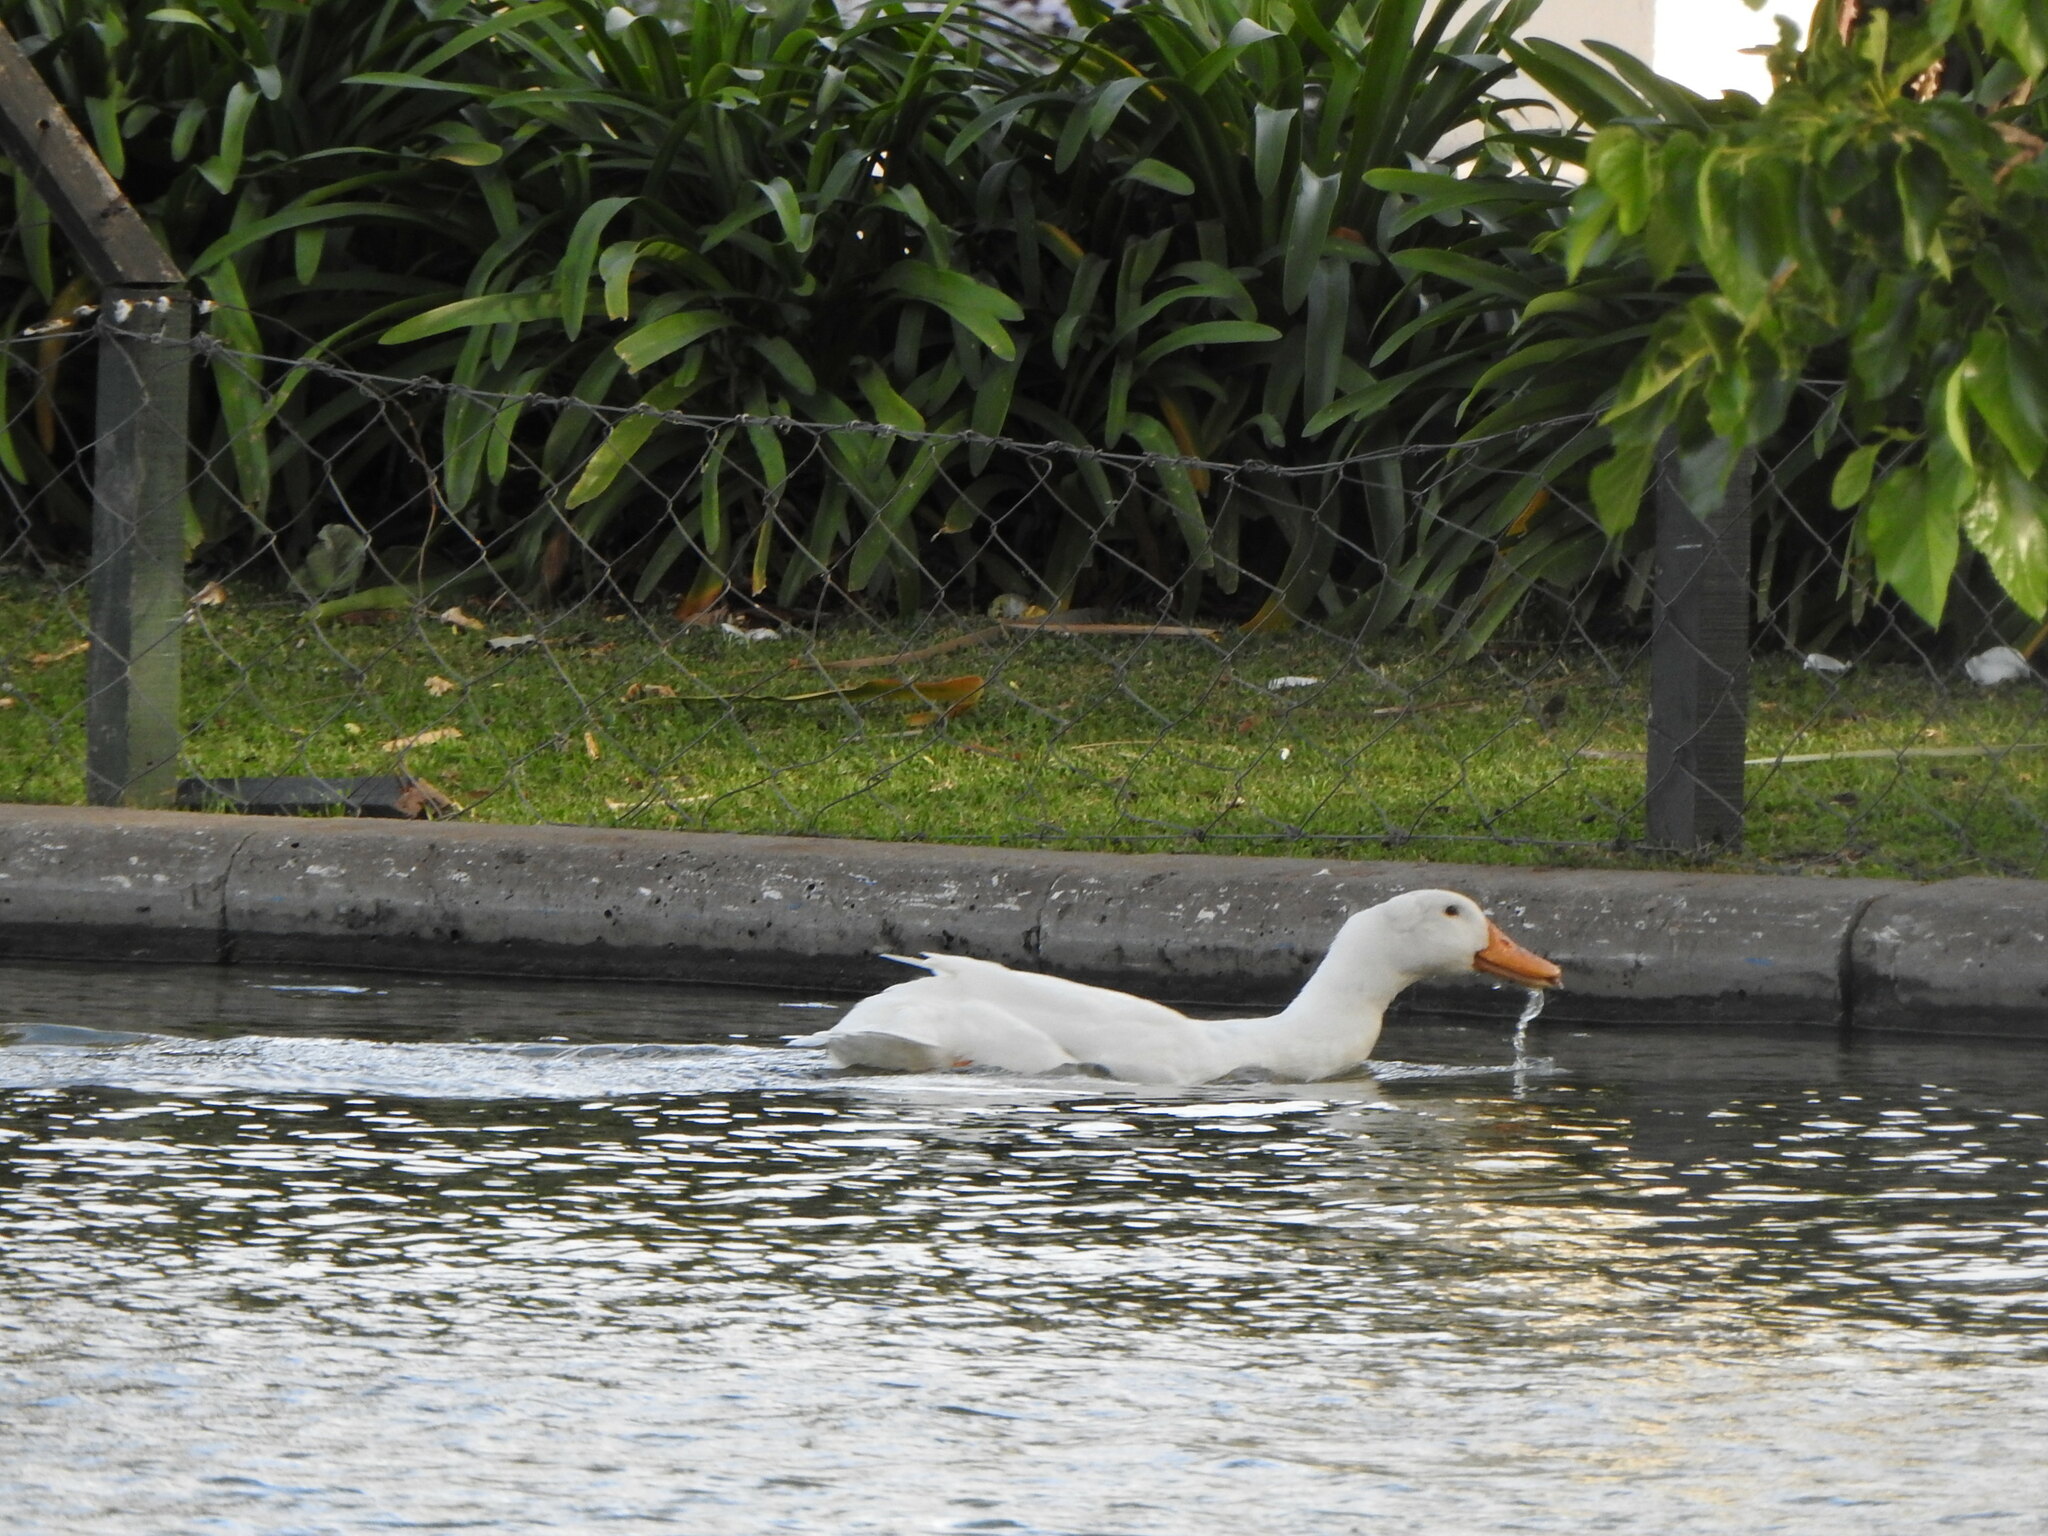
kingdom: Animalia
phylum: Chordata
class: Aves
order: Anseriformes
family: Anatidae
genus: Anas
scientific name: Anas platyrhynchos
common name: Mallard
